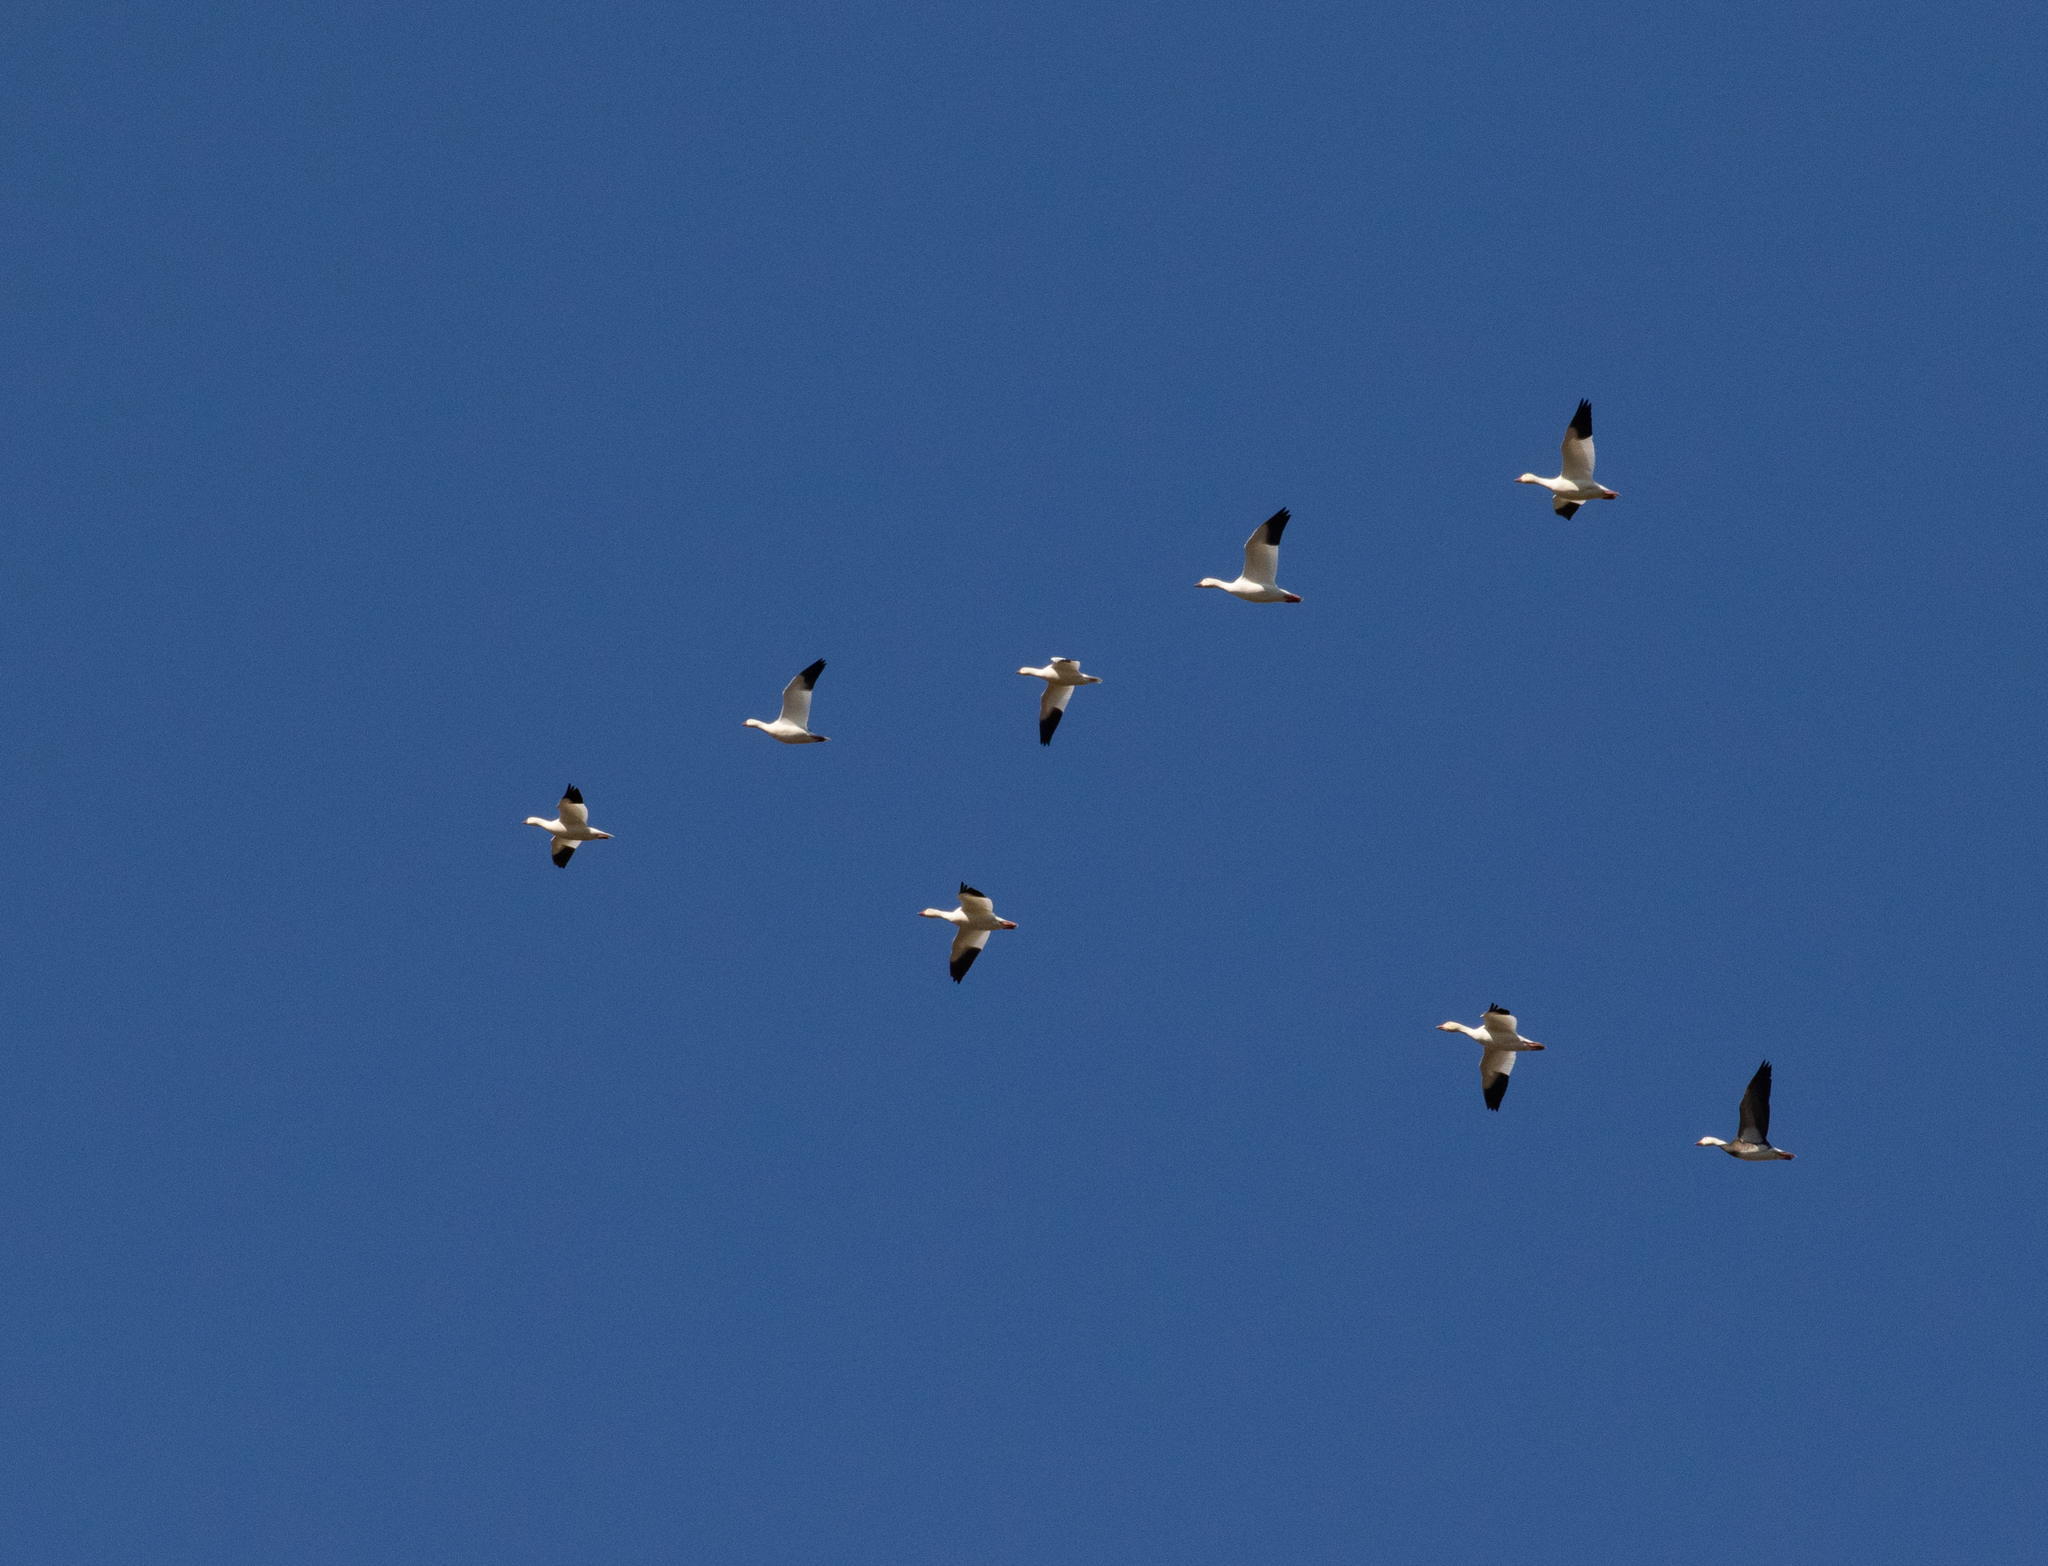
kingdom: Animalia
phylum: Chordata
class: Aves
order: Anseriformes
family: Anatidae
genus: Anser
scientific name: Anser rossii
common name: Ross's goose
